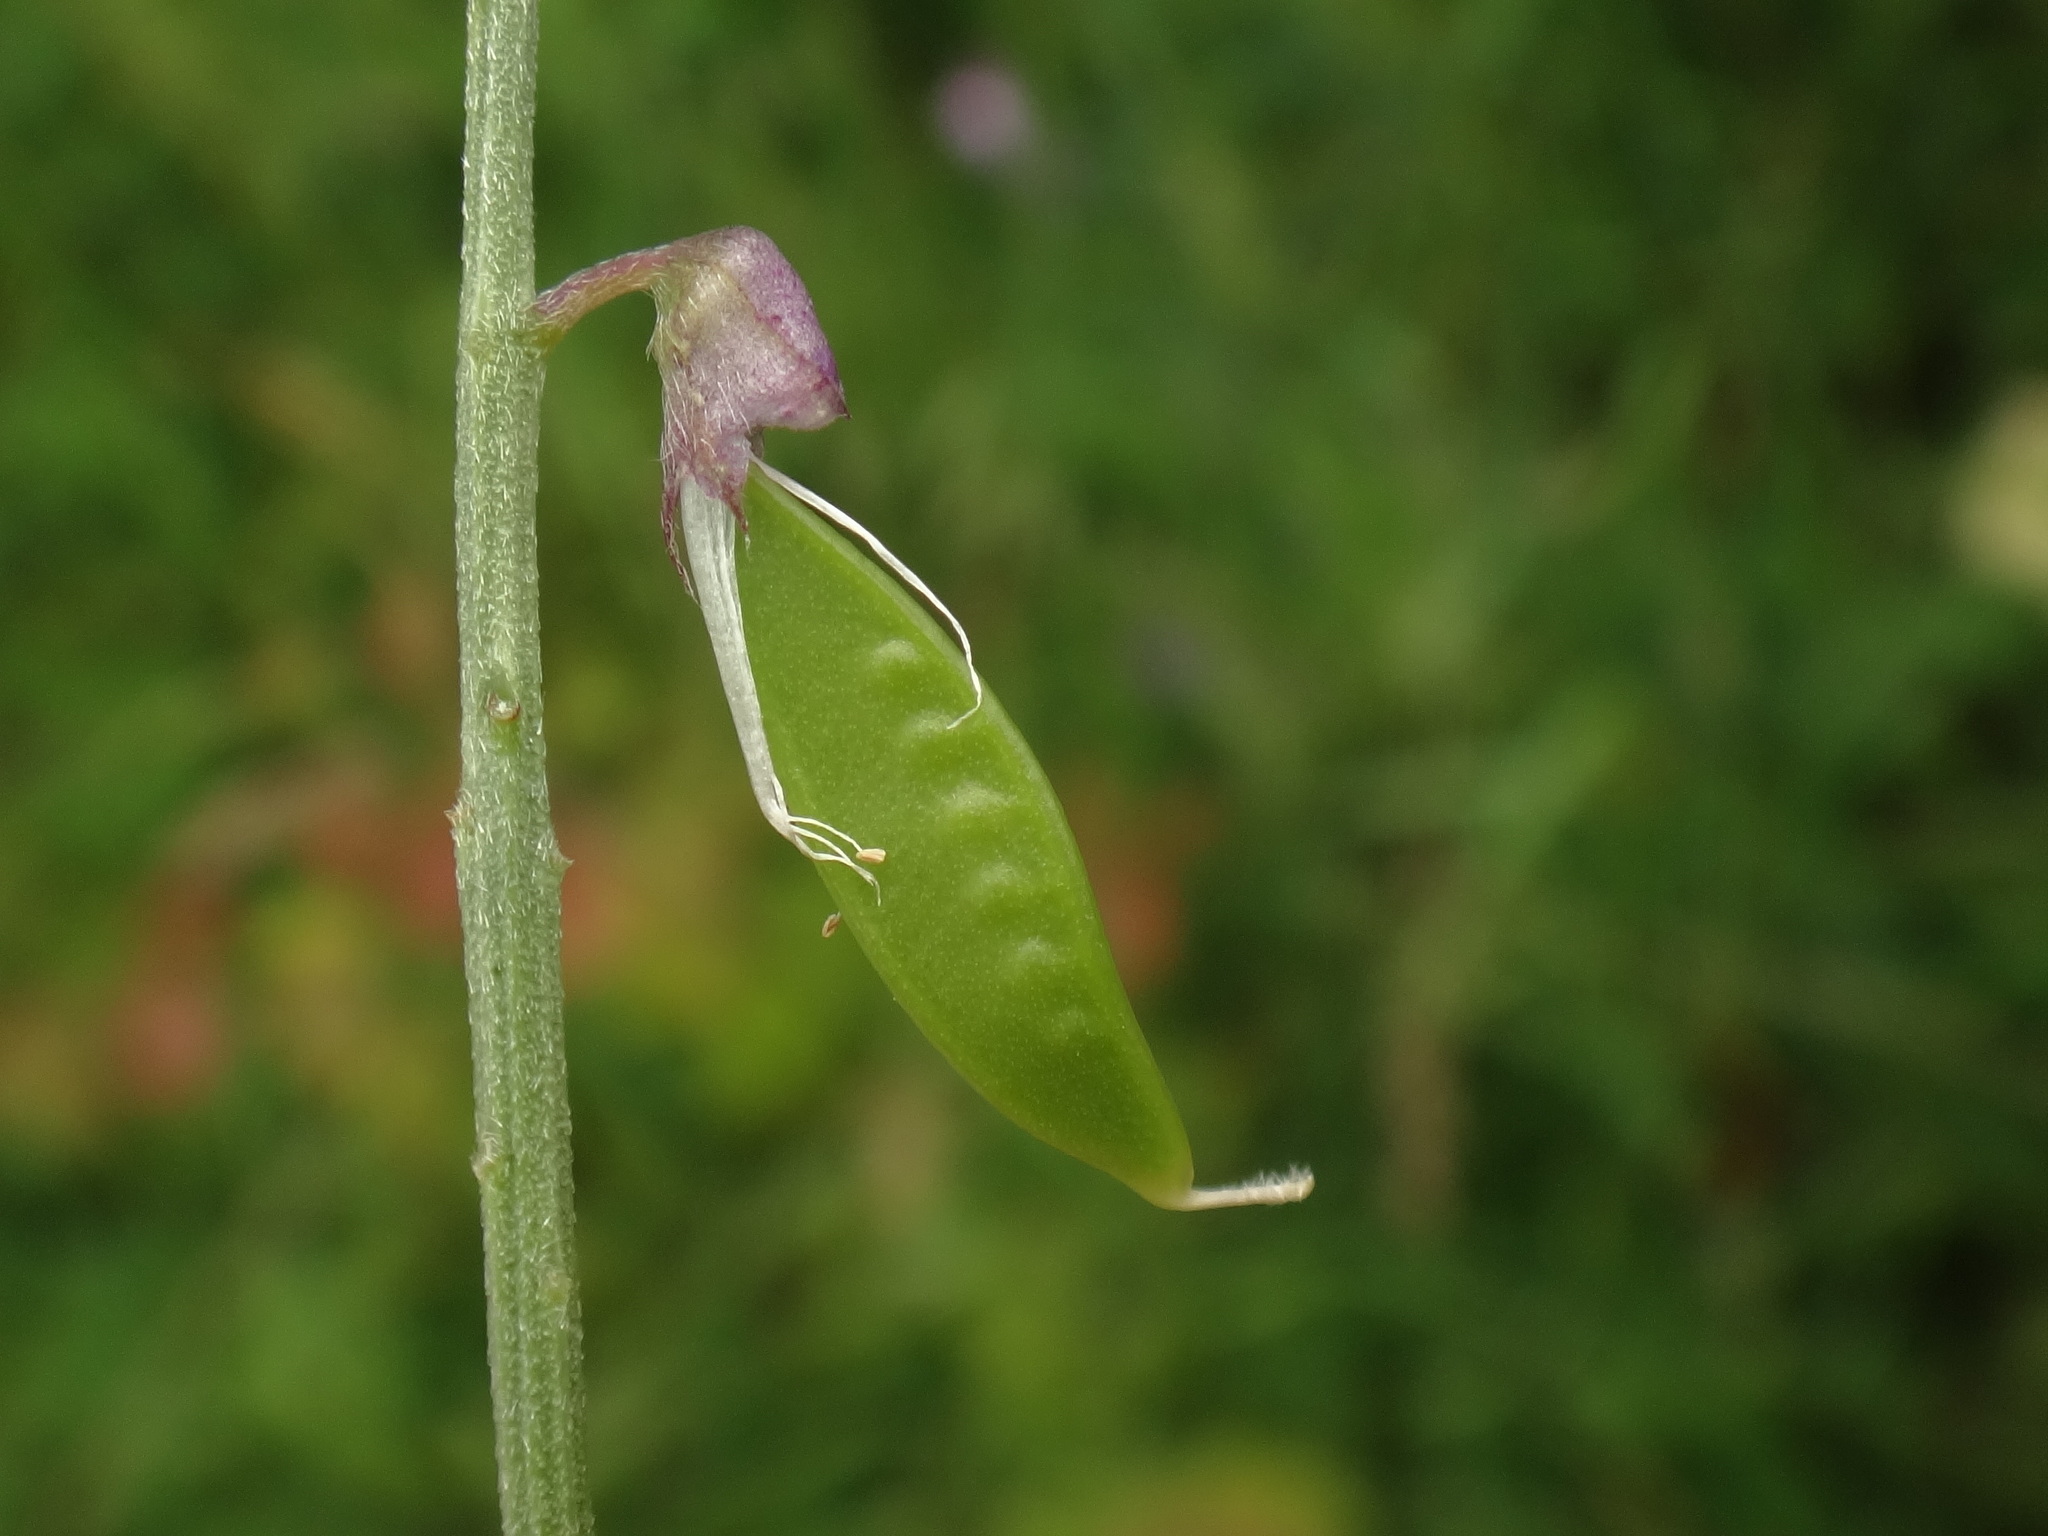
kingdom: Plantae
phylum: Tracheophyta
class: Magnoliopsida
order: Fabales
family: Fabaceae
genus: Vicia
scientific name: Vicia tenuifolia
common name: Fine-leaved vetch
